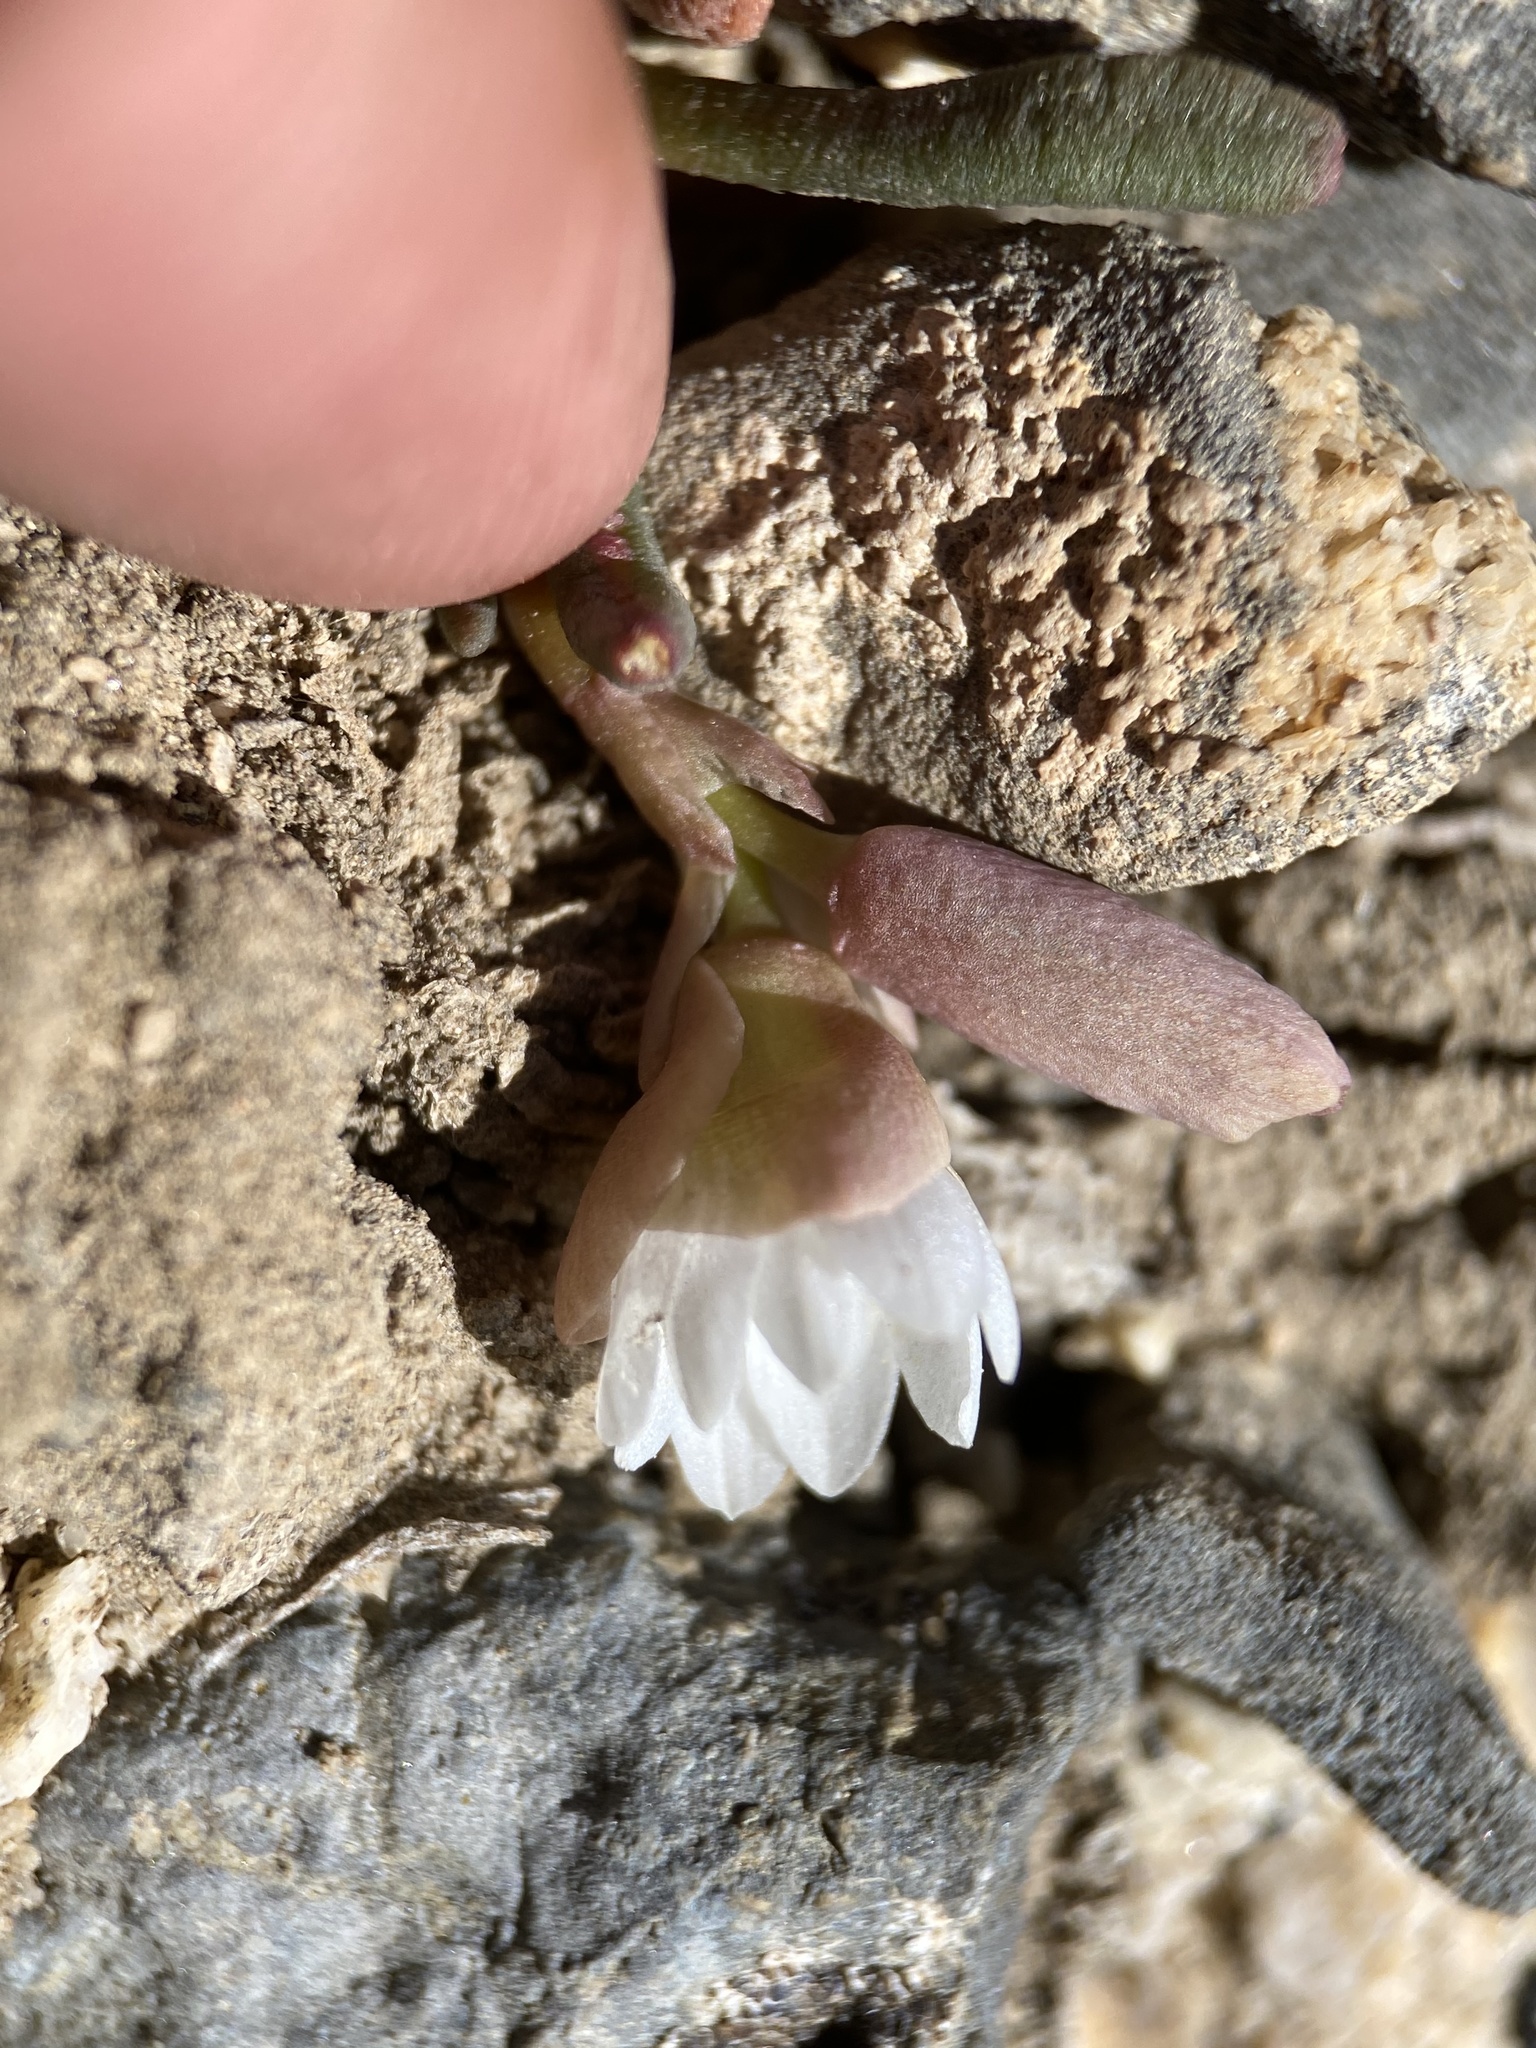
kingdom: Plantae
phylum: Tracheophyta
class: Magnoliopsida
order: Caryophyllales
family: Montiaceae
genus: Lewisia
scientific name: Lewisia maguirei
